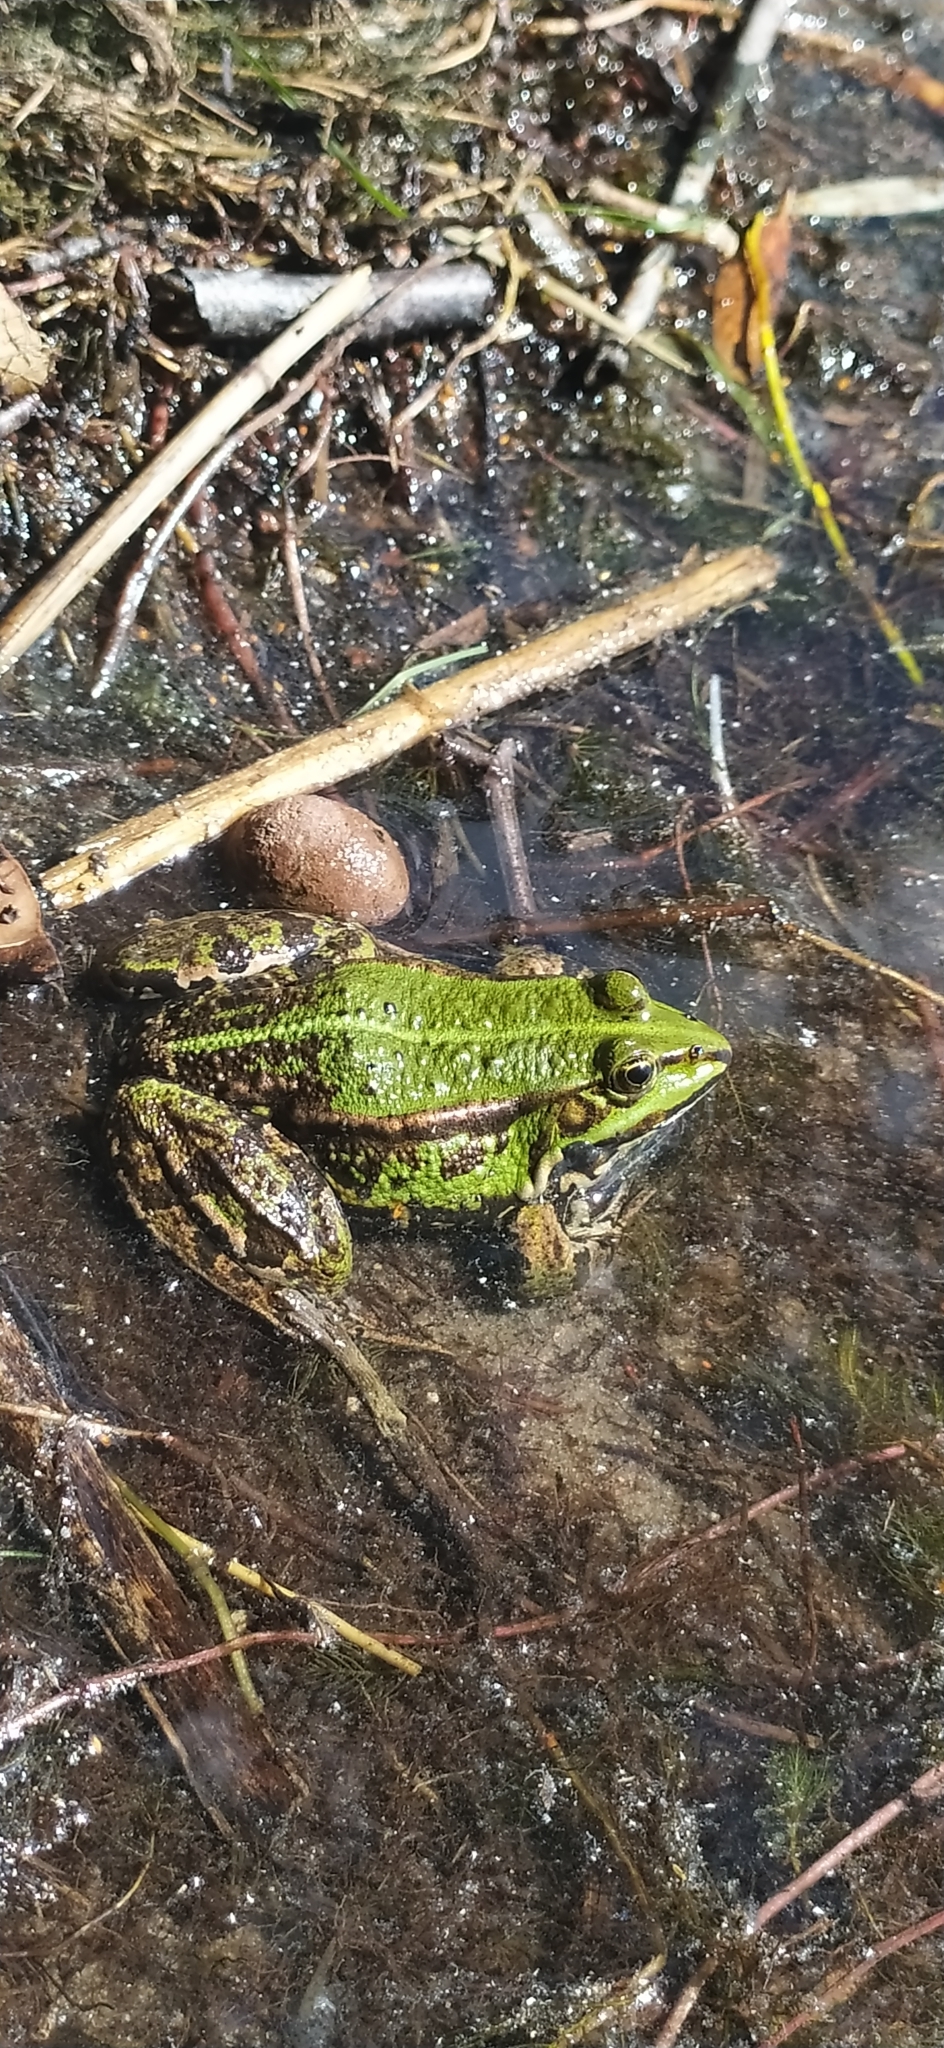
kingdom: Animalia
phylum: Chordata
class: Amphibia
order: Anura
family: Ranidae
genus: Pelophylax
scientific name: Pelophylax ridibundus
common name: Marsh frog
